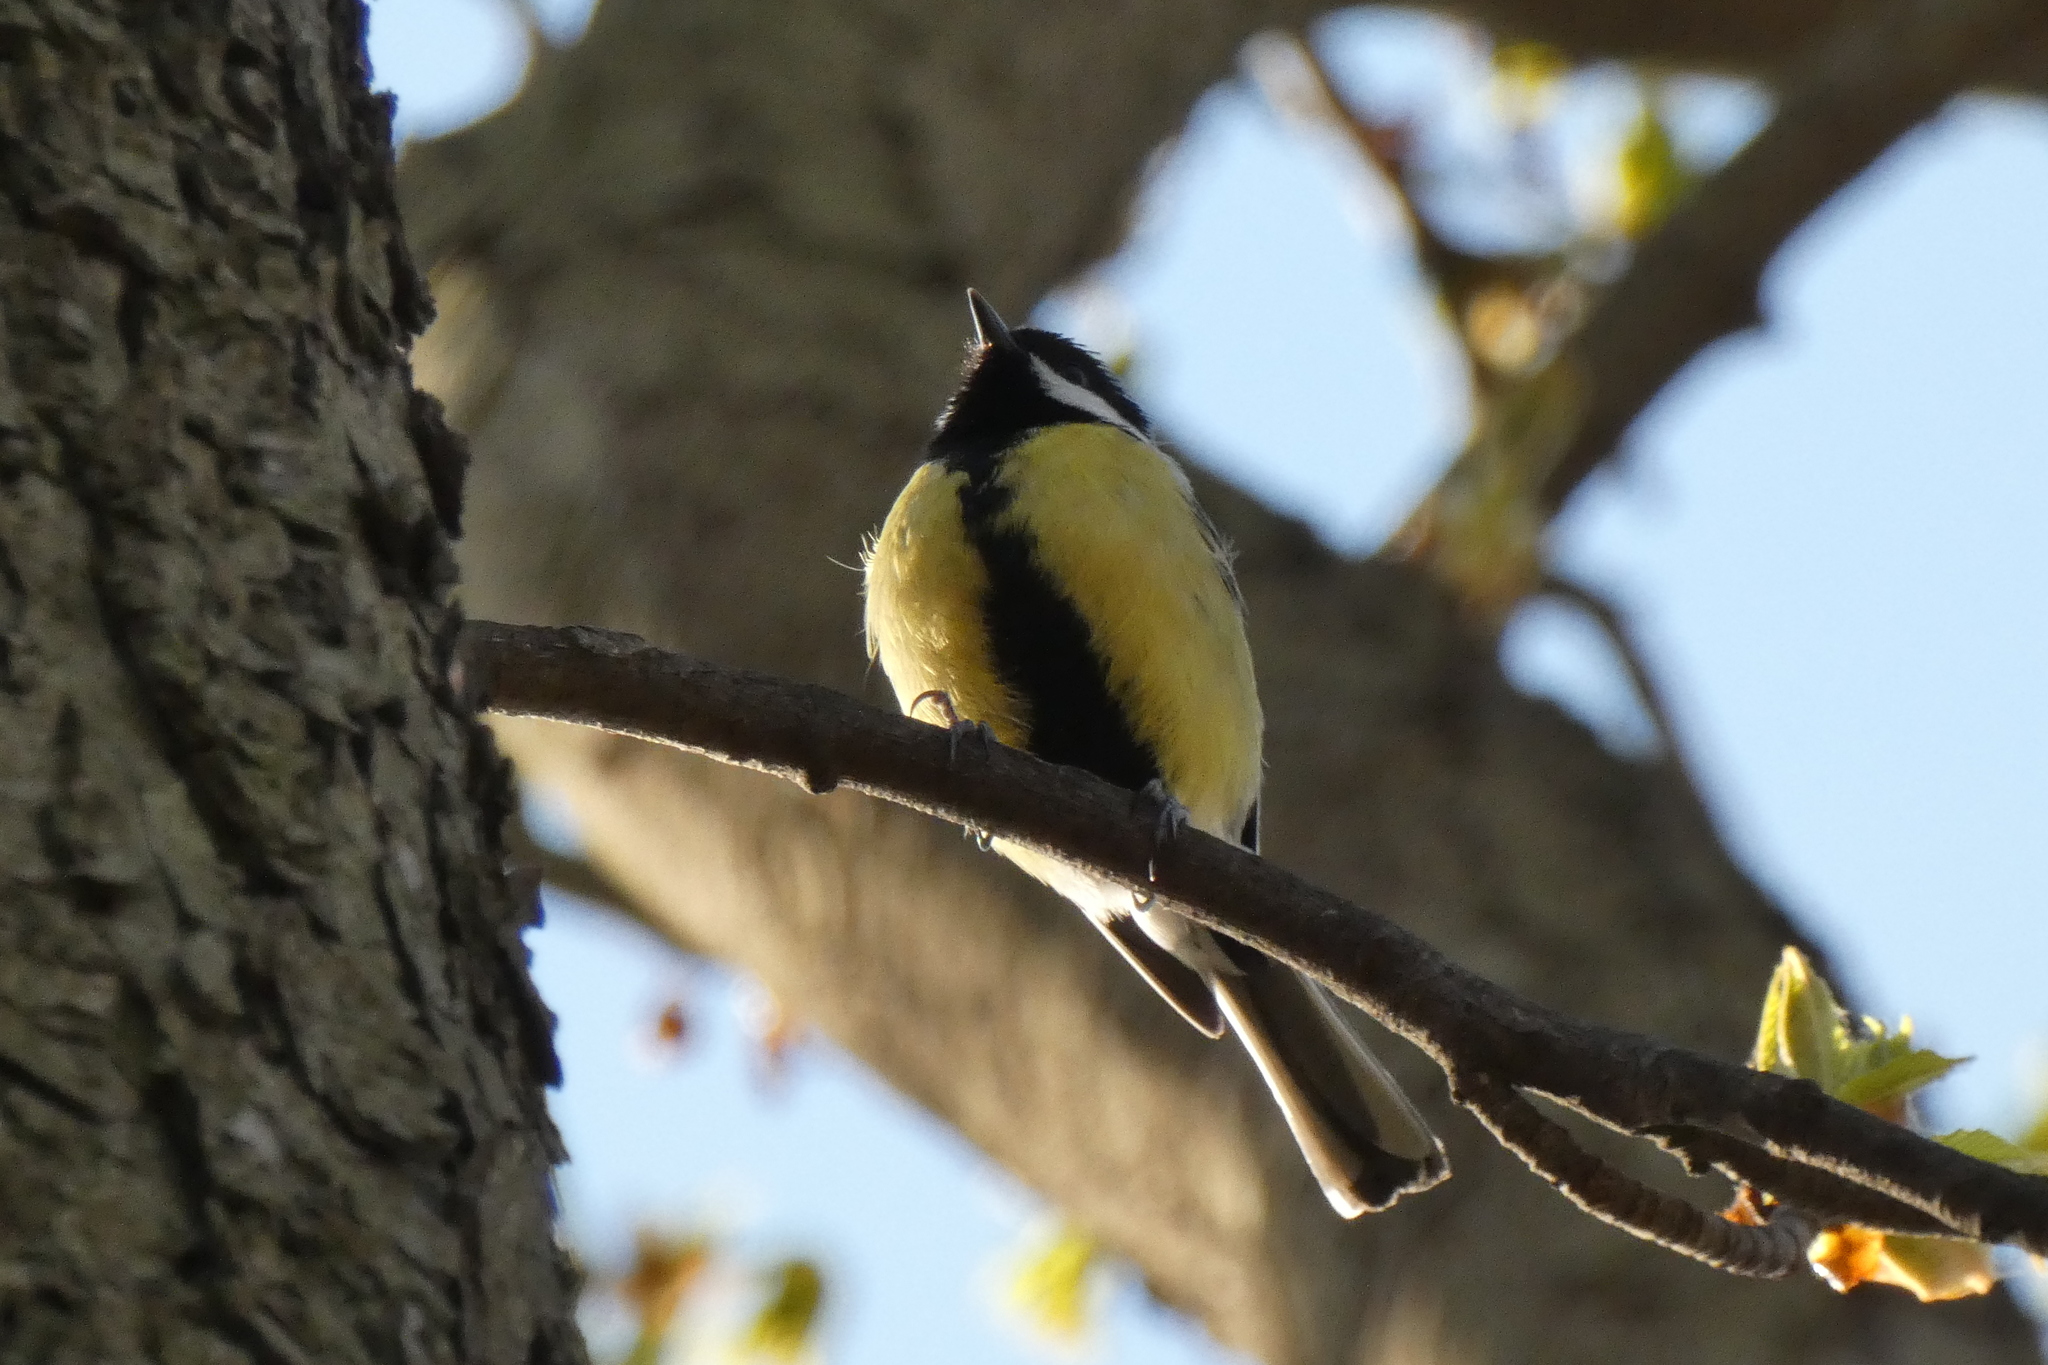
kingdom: Animalia
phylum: Chordata
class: Aves
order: Passeriformes
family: Paridae
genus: Parus
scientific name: Parus major
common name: Great tit
